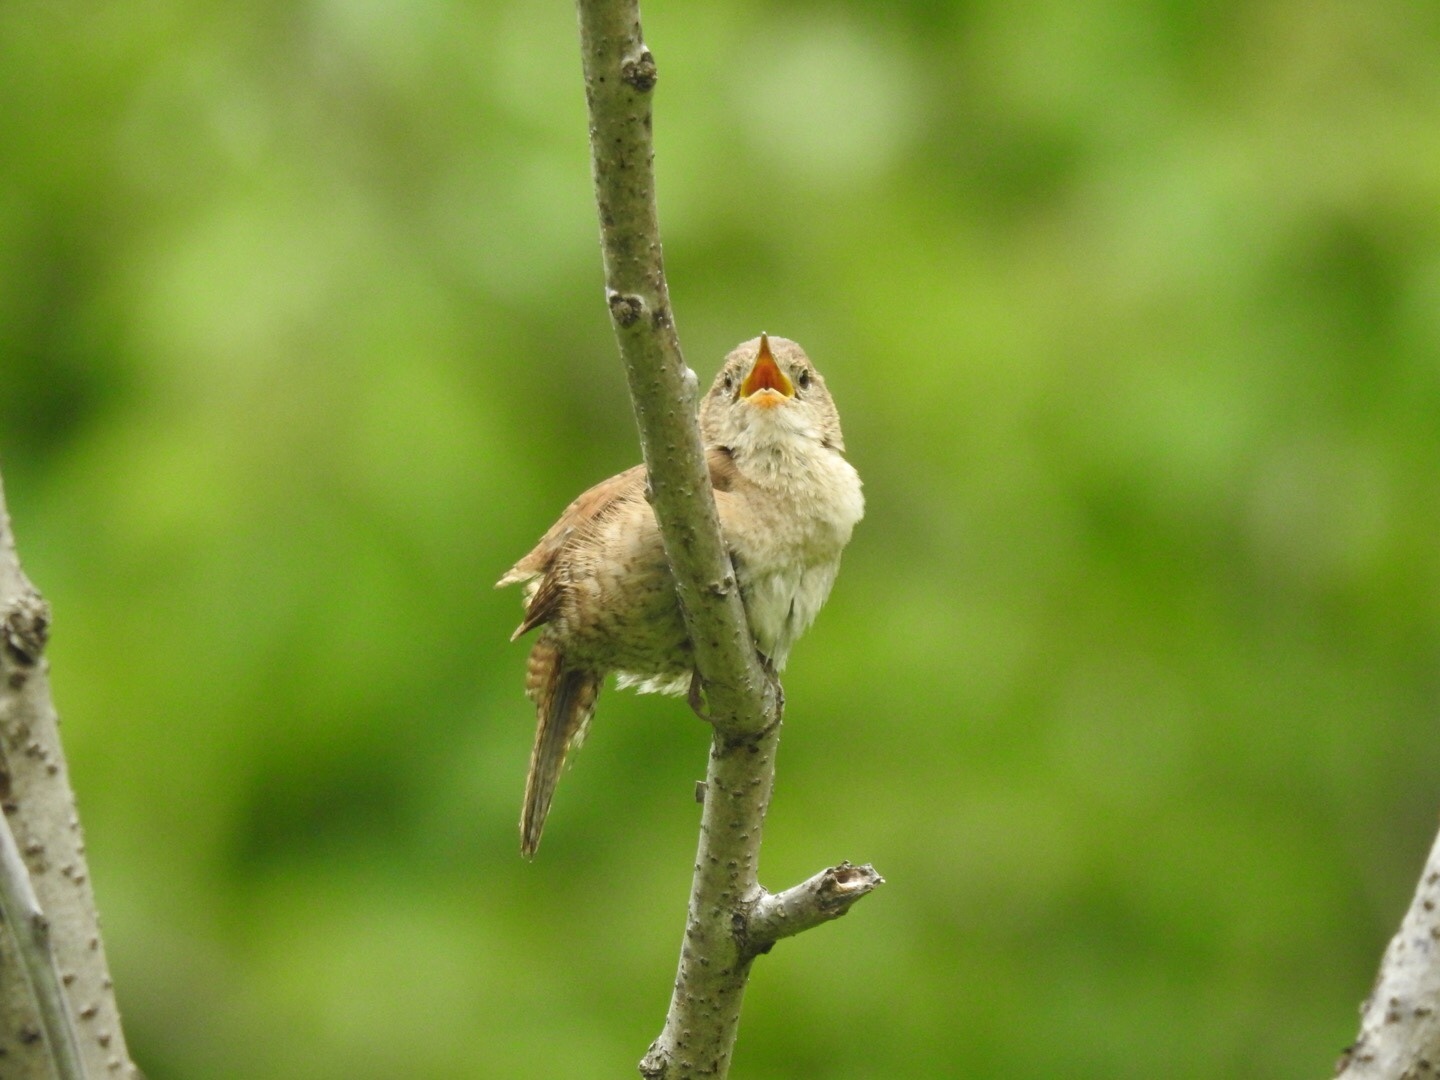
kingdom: Animalia
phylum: Chordata
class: Aves
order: Passeriformes
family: Troglodytidae
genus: Troglodytes
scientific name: Troglodytes aedon
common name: House wren
